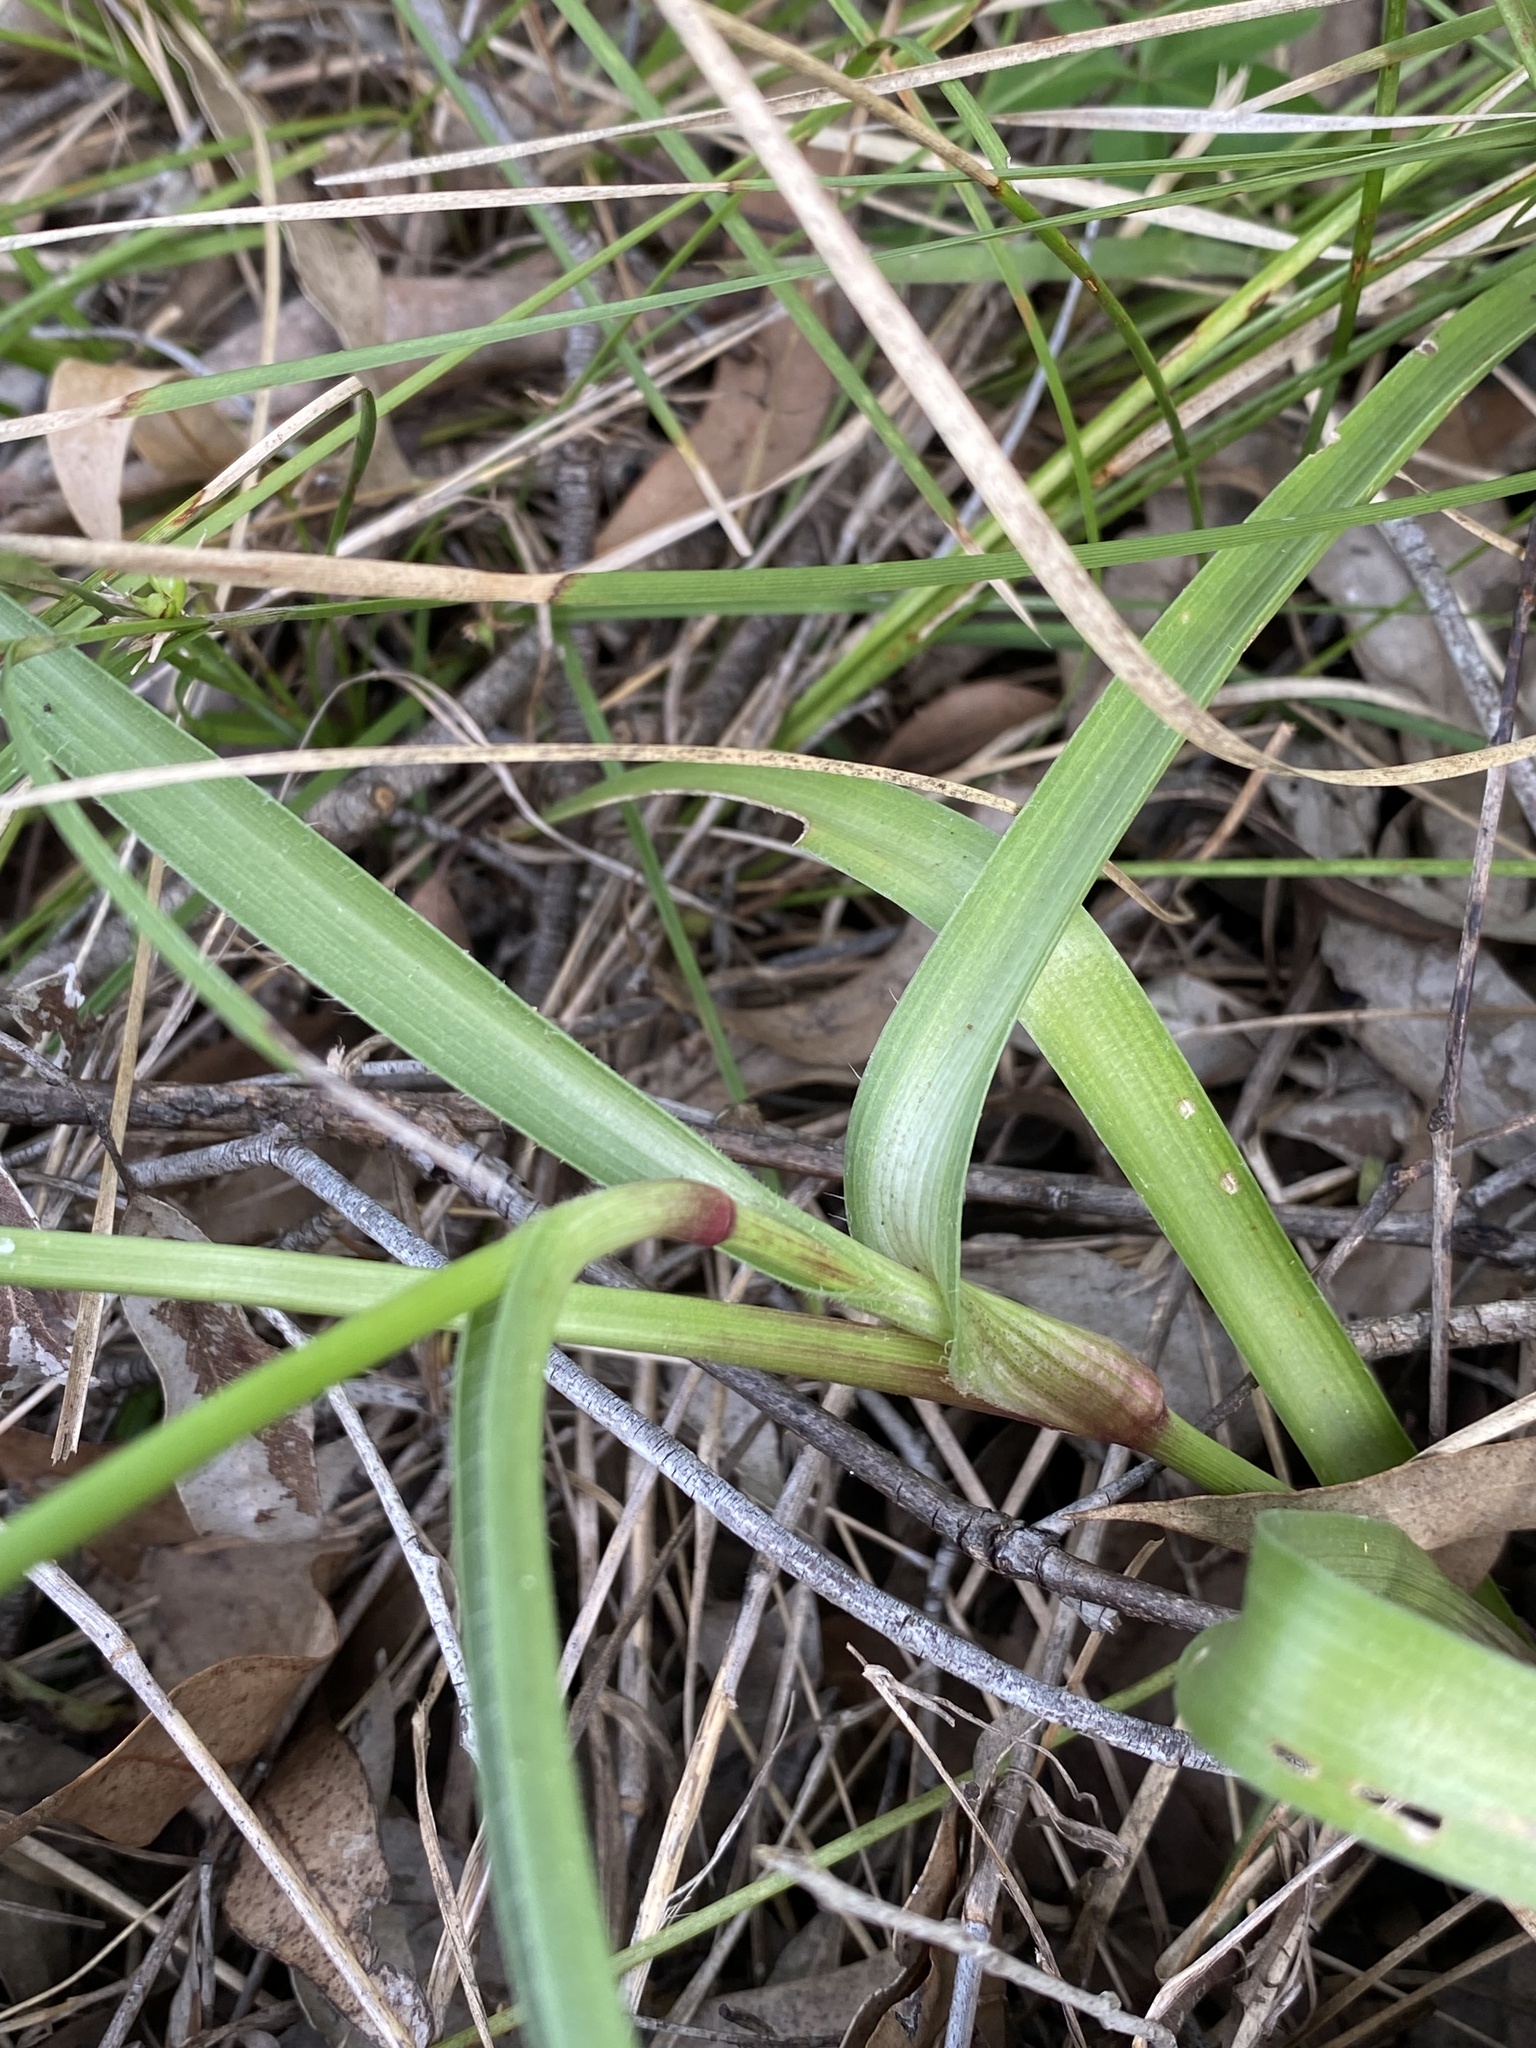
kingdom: Plantae
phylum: Tracheophyta
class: Liliopsida
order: Commelinales
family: Commelinaceae
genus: Murdannia
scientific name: Murdannia graminea
